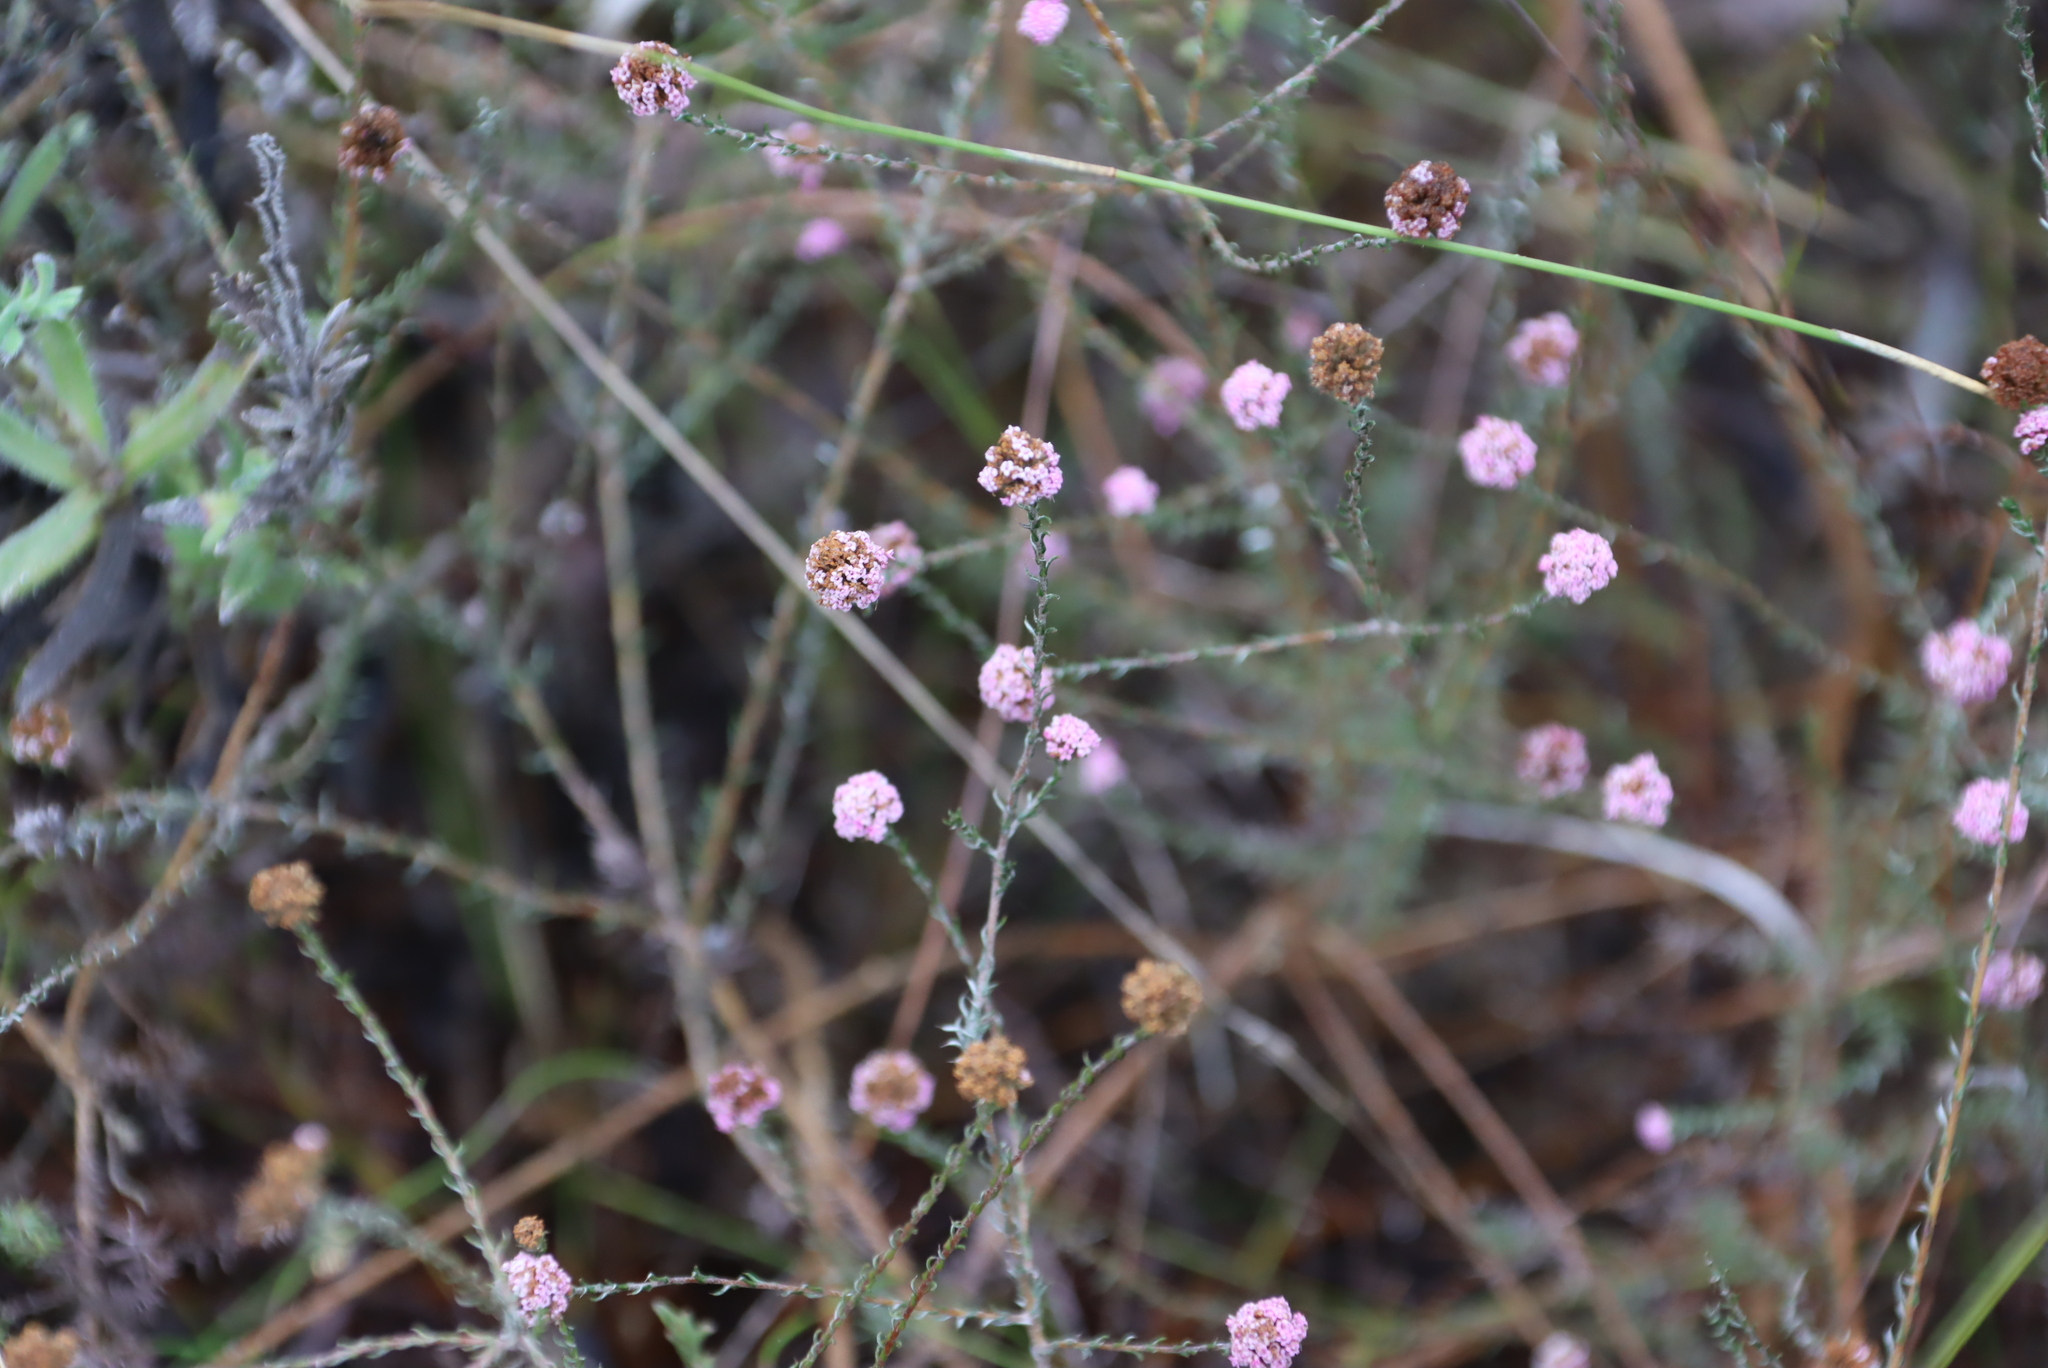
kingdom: Plantae
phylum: Tracheophyta
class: Magnoliopsida
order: Asterales
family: Asteraceae
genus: Stoebe
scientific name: Stoebe capitata
